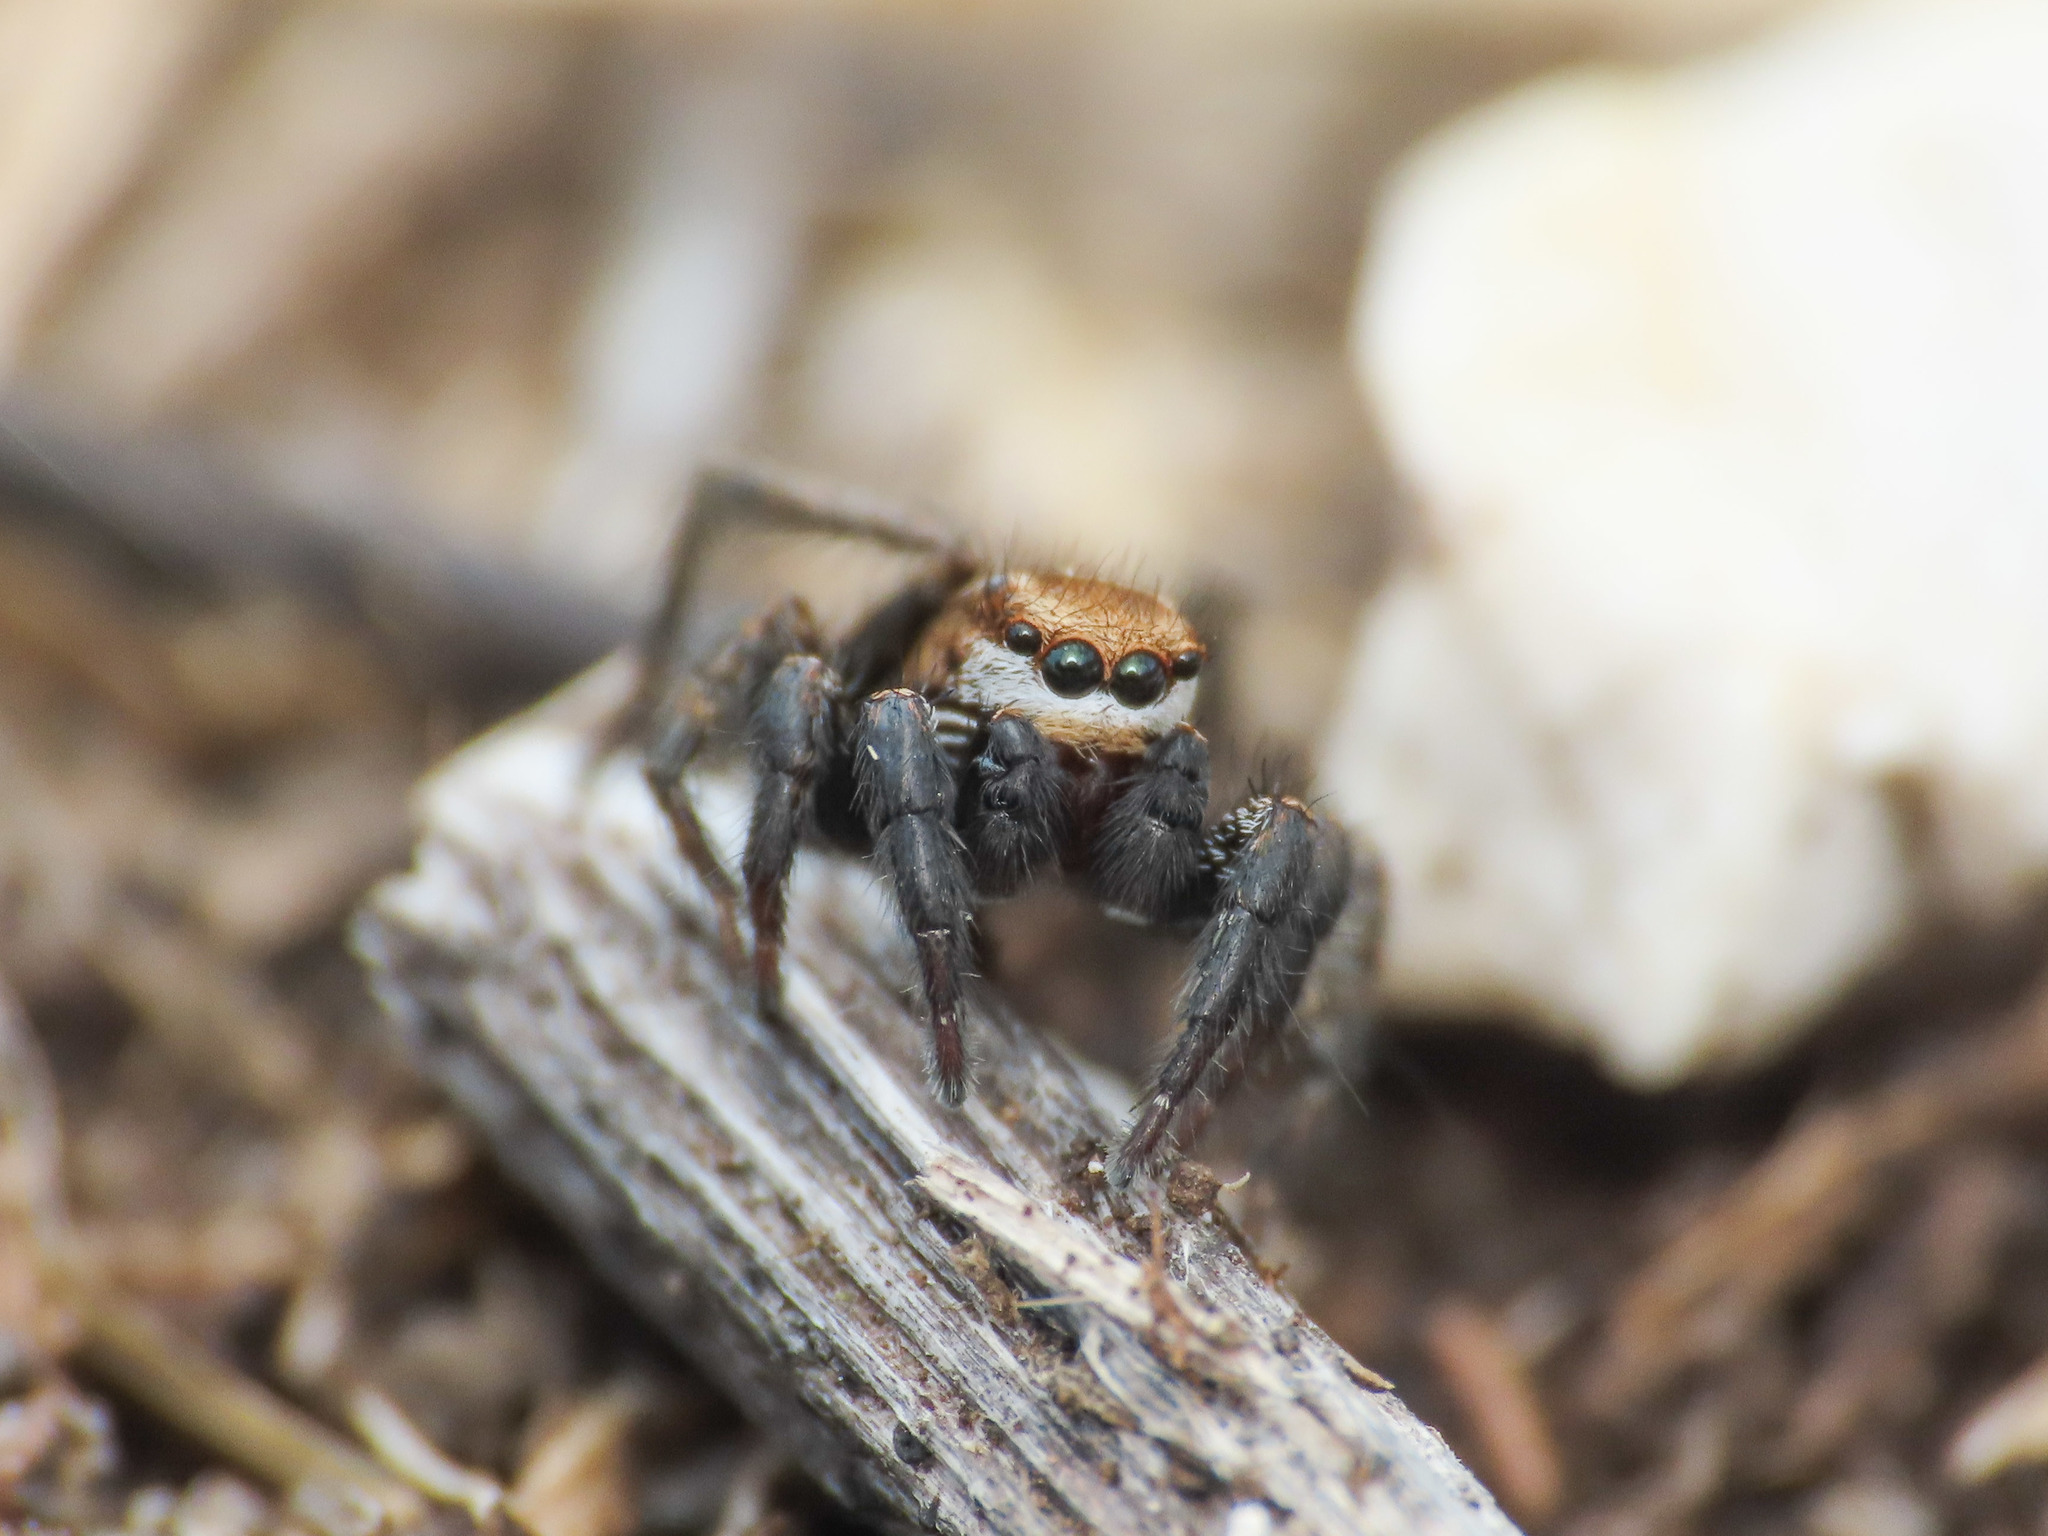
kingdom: Animalia
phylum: Arthropoda
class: Arachnida
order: Araneae
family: Salticidae
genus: Phlegra
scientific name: Phlegra cinereofasciata
